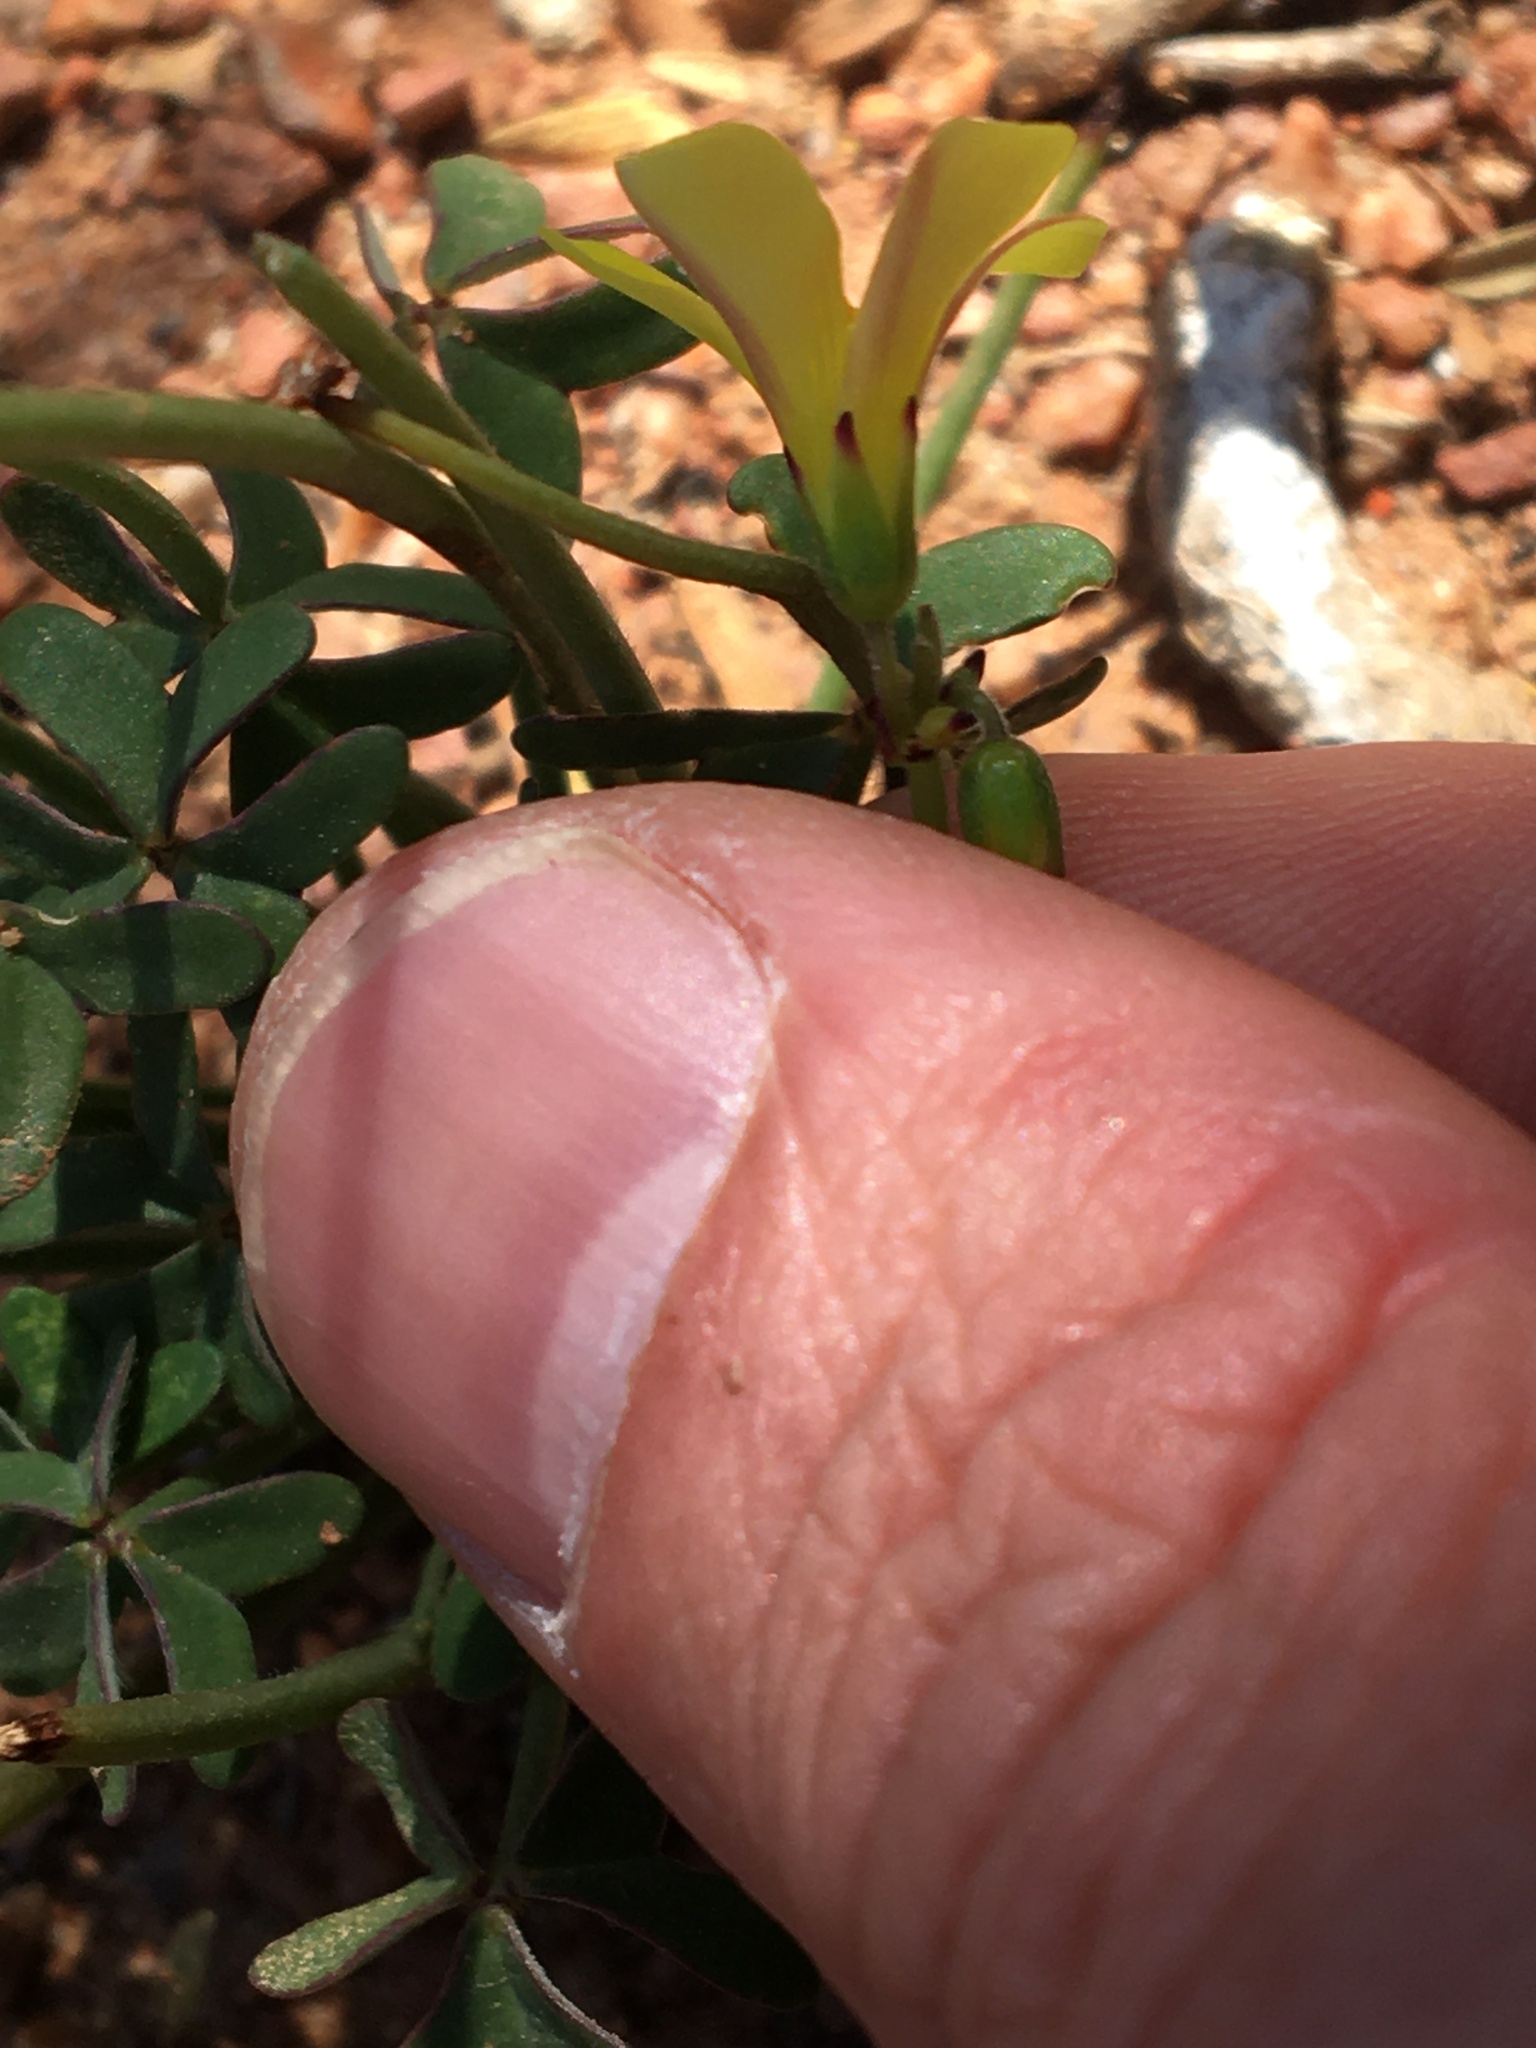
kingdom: Plantae
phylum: Tracheophyta
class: Magnoliopsida
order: Oxalidales
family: Oxalidaceae
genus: Oxalis
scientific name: Oxalis pes-caprae
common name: Bermuda-buttercup
